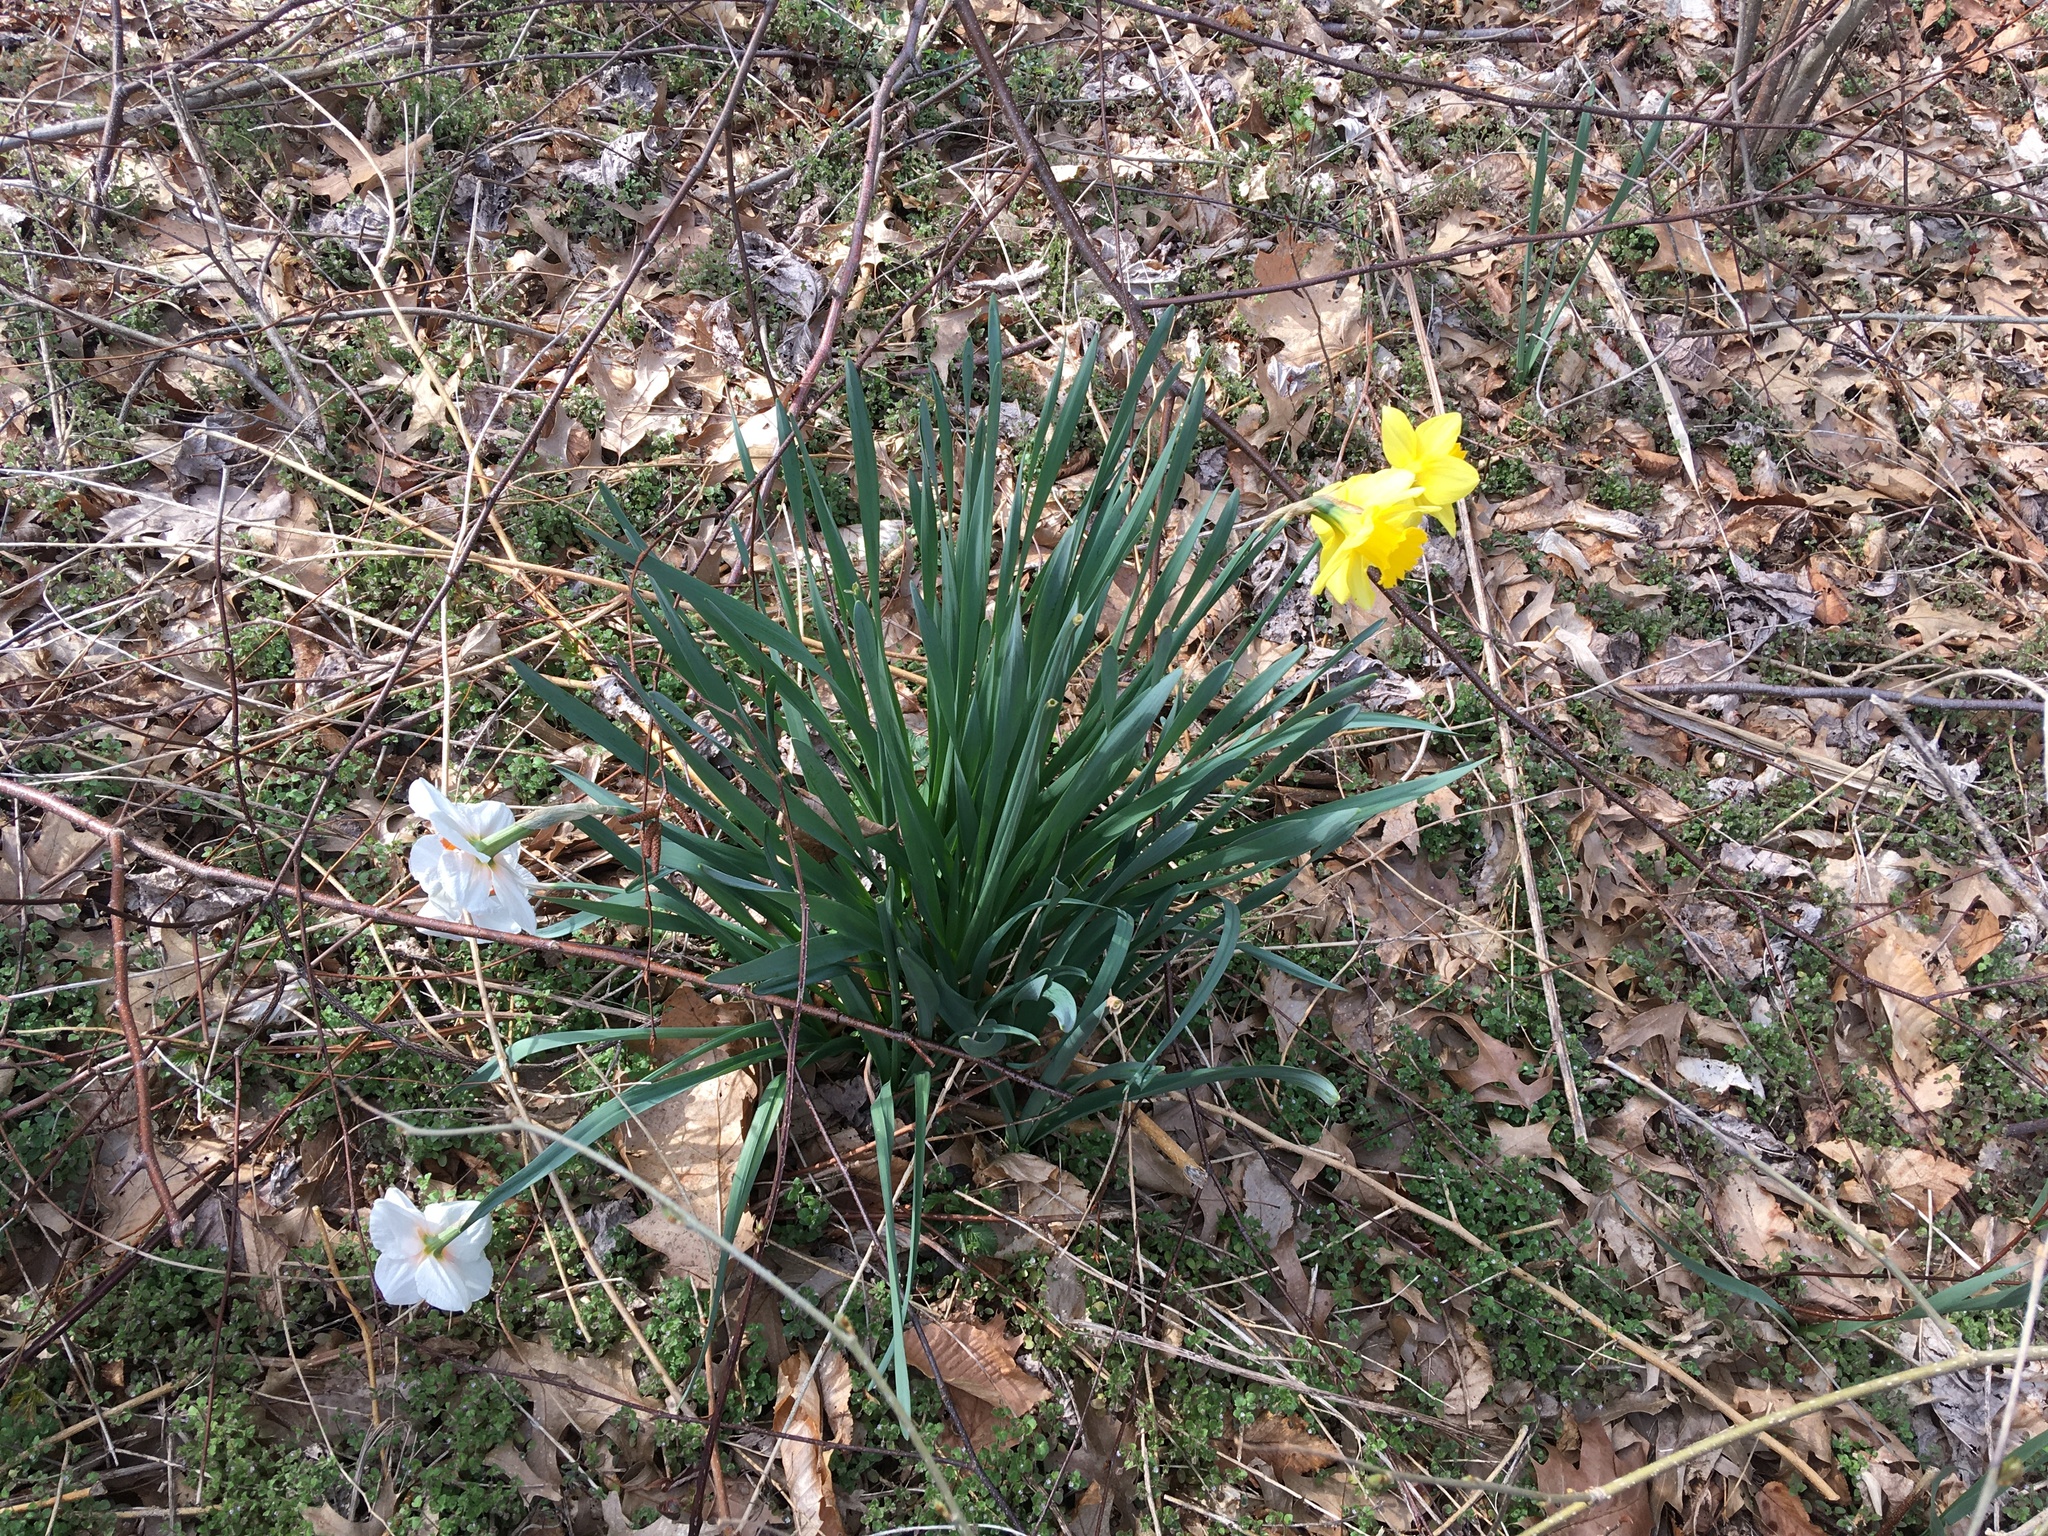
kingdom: Plantae
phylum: Tracheophyta
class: Liliopsida
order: Asparagales
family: Amaryllidaceae
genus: Narcissus
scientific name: Narcissus pseudonarcissus
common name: Daffodil
